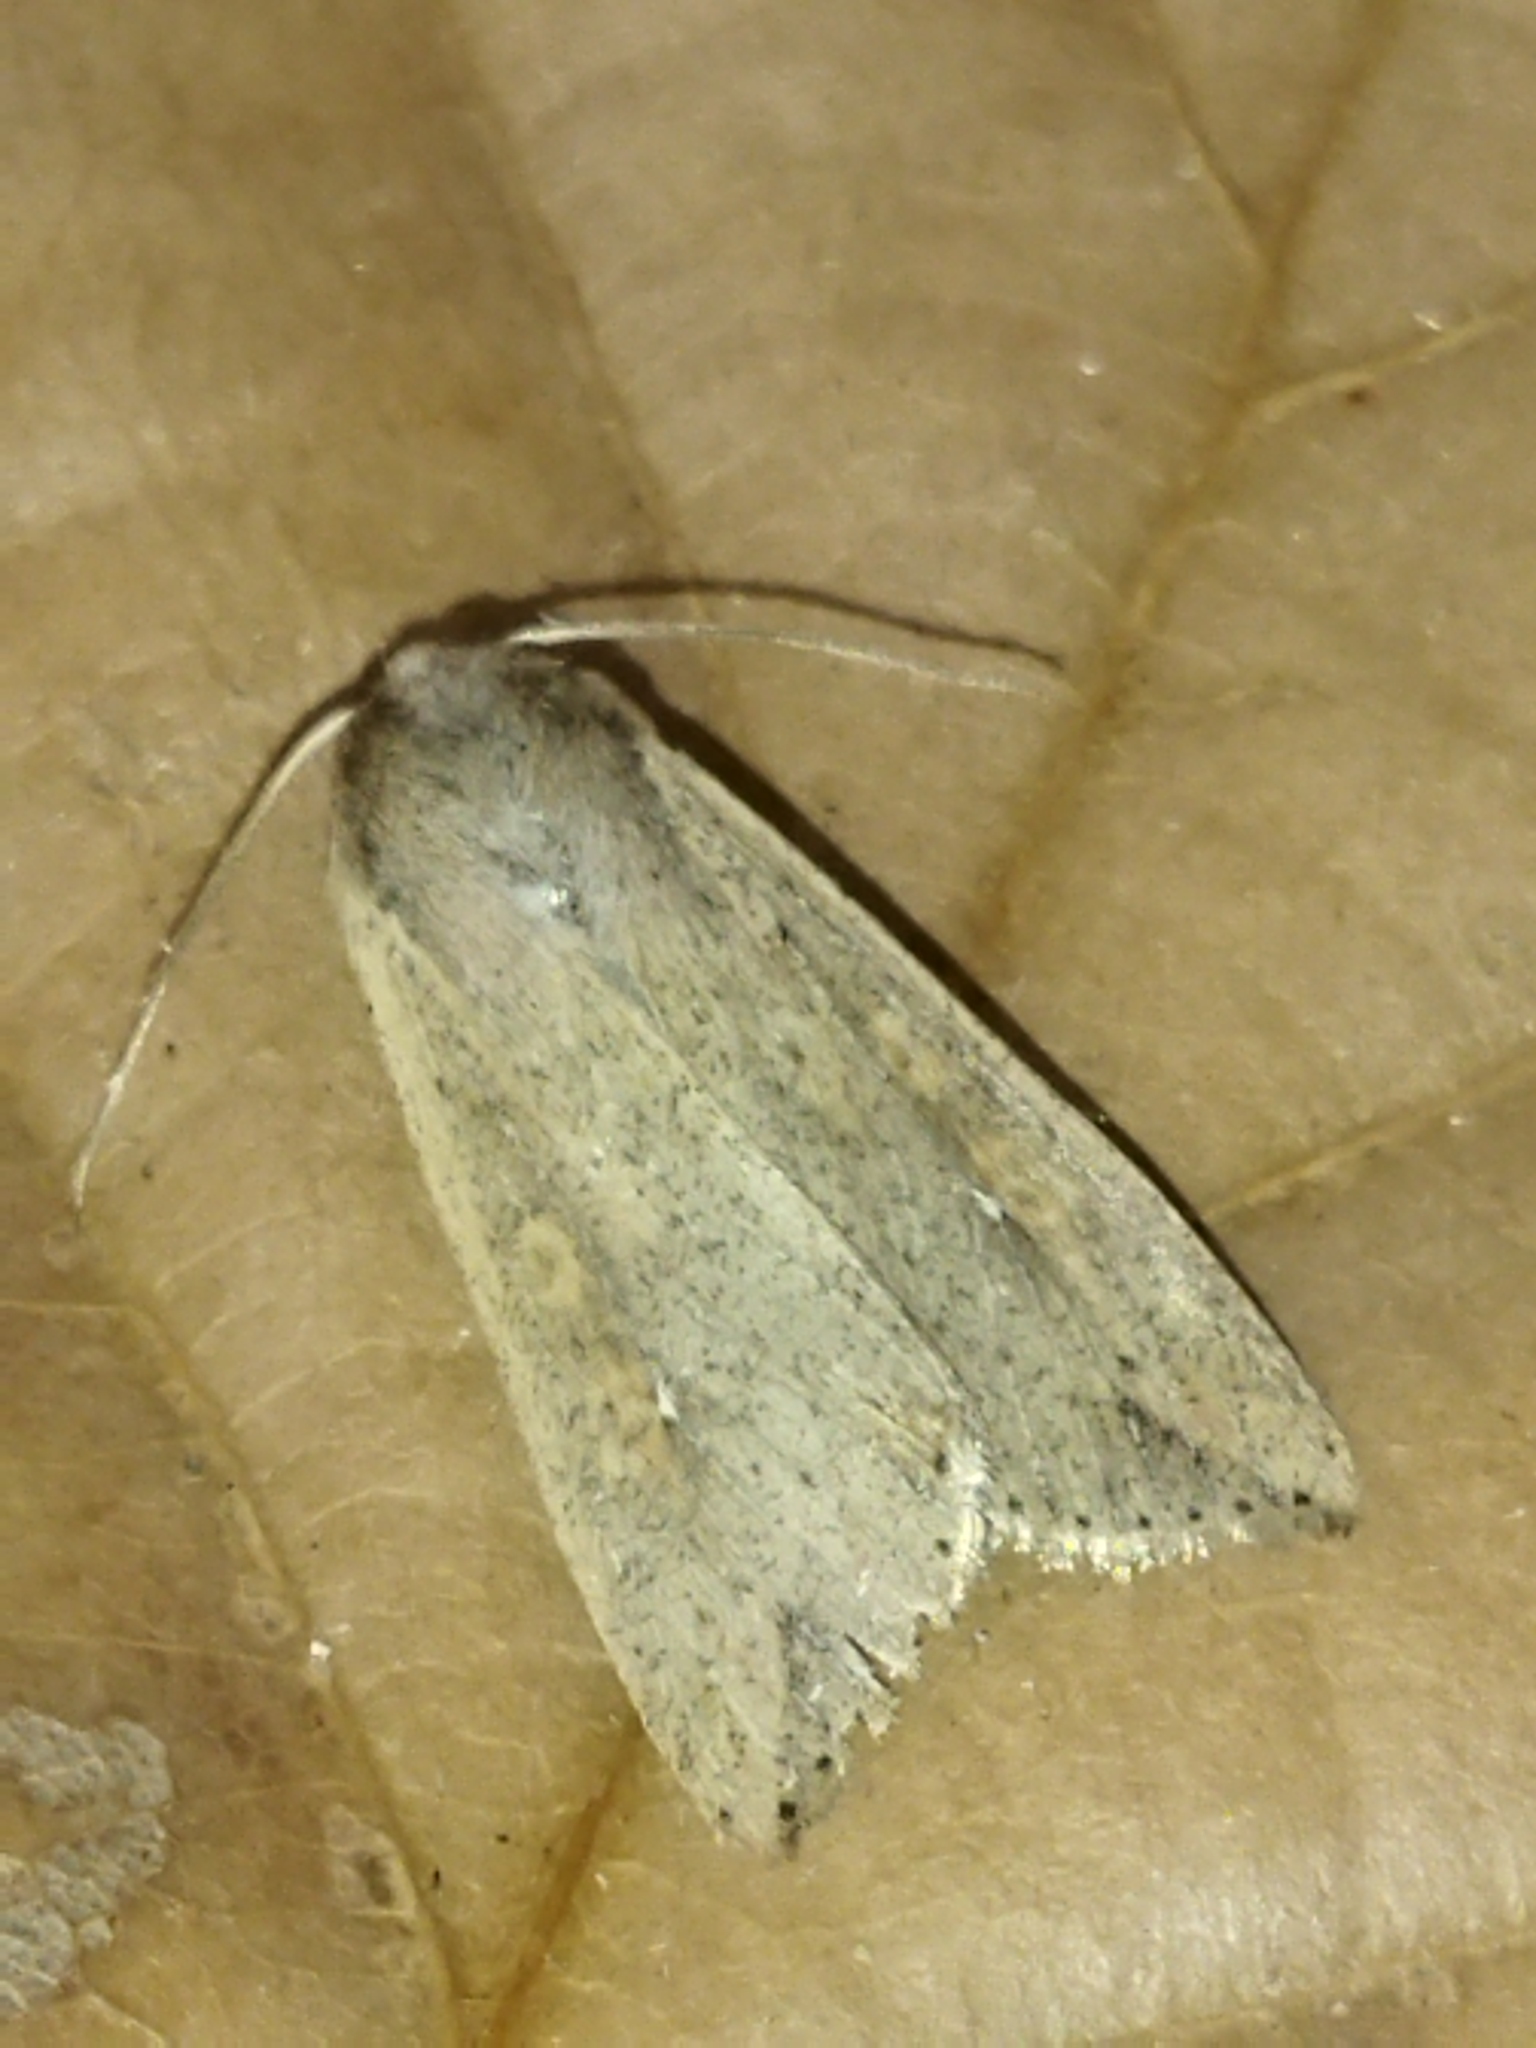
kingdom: Animalia
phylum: Arthropoda
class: Insecta
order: Lepidoptera
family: Noctuidae
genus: Mythimna
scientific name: Mythimna unipuncta
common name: White-speck
